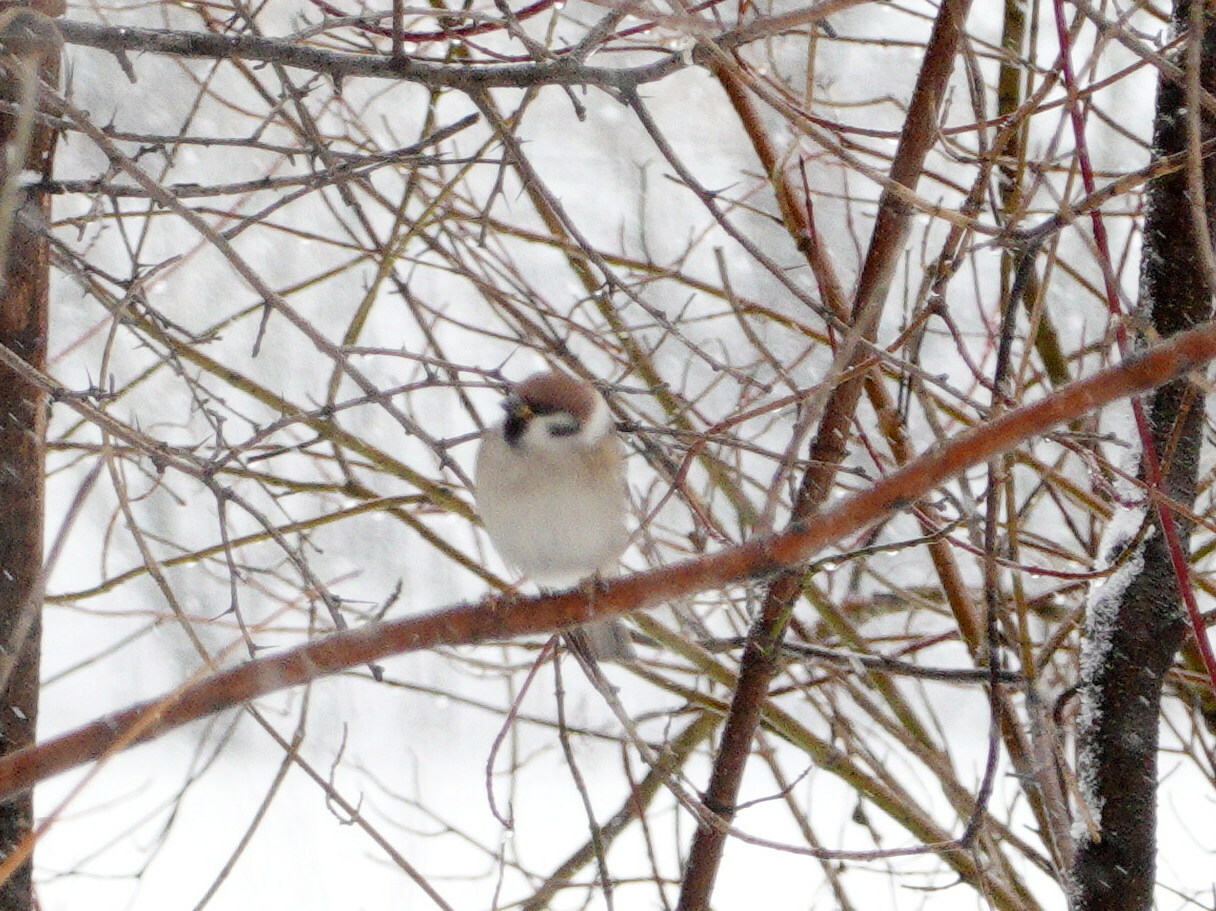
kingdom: Animalia
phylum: Chordata
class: Aves
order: Passeriformes
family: Passeridae
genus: Passer
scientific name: Passer montanus
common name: Eurasian tree sparrow
